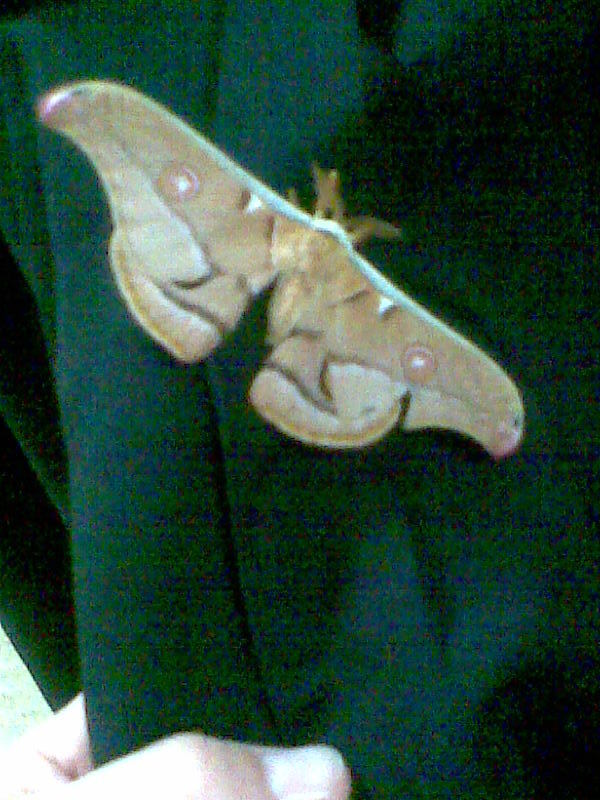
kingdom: Animalia
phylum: Arthropoda
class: Insecta
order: Lepidoptera
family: Saturniidae
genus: Opodiphthera
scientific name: Opodiphthera
